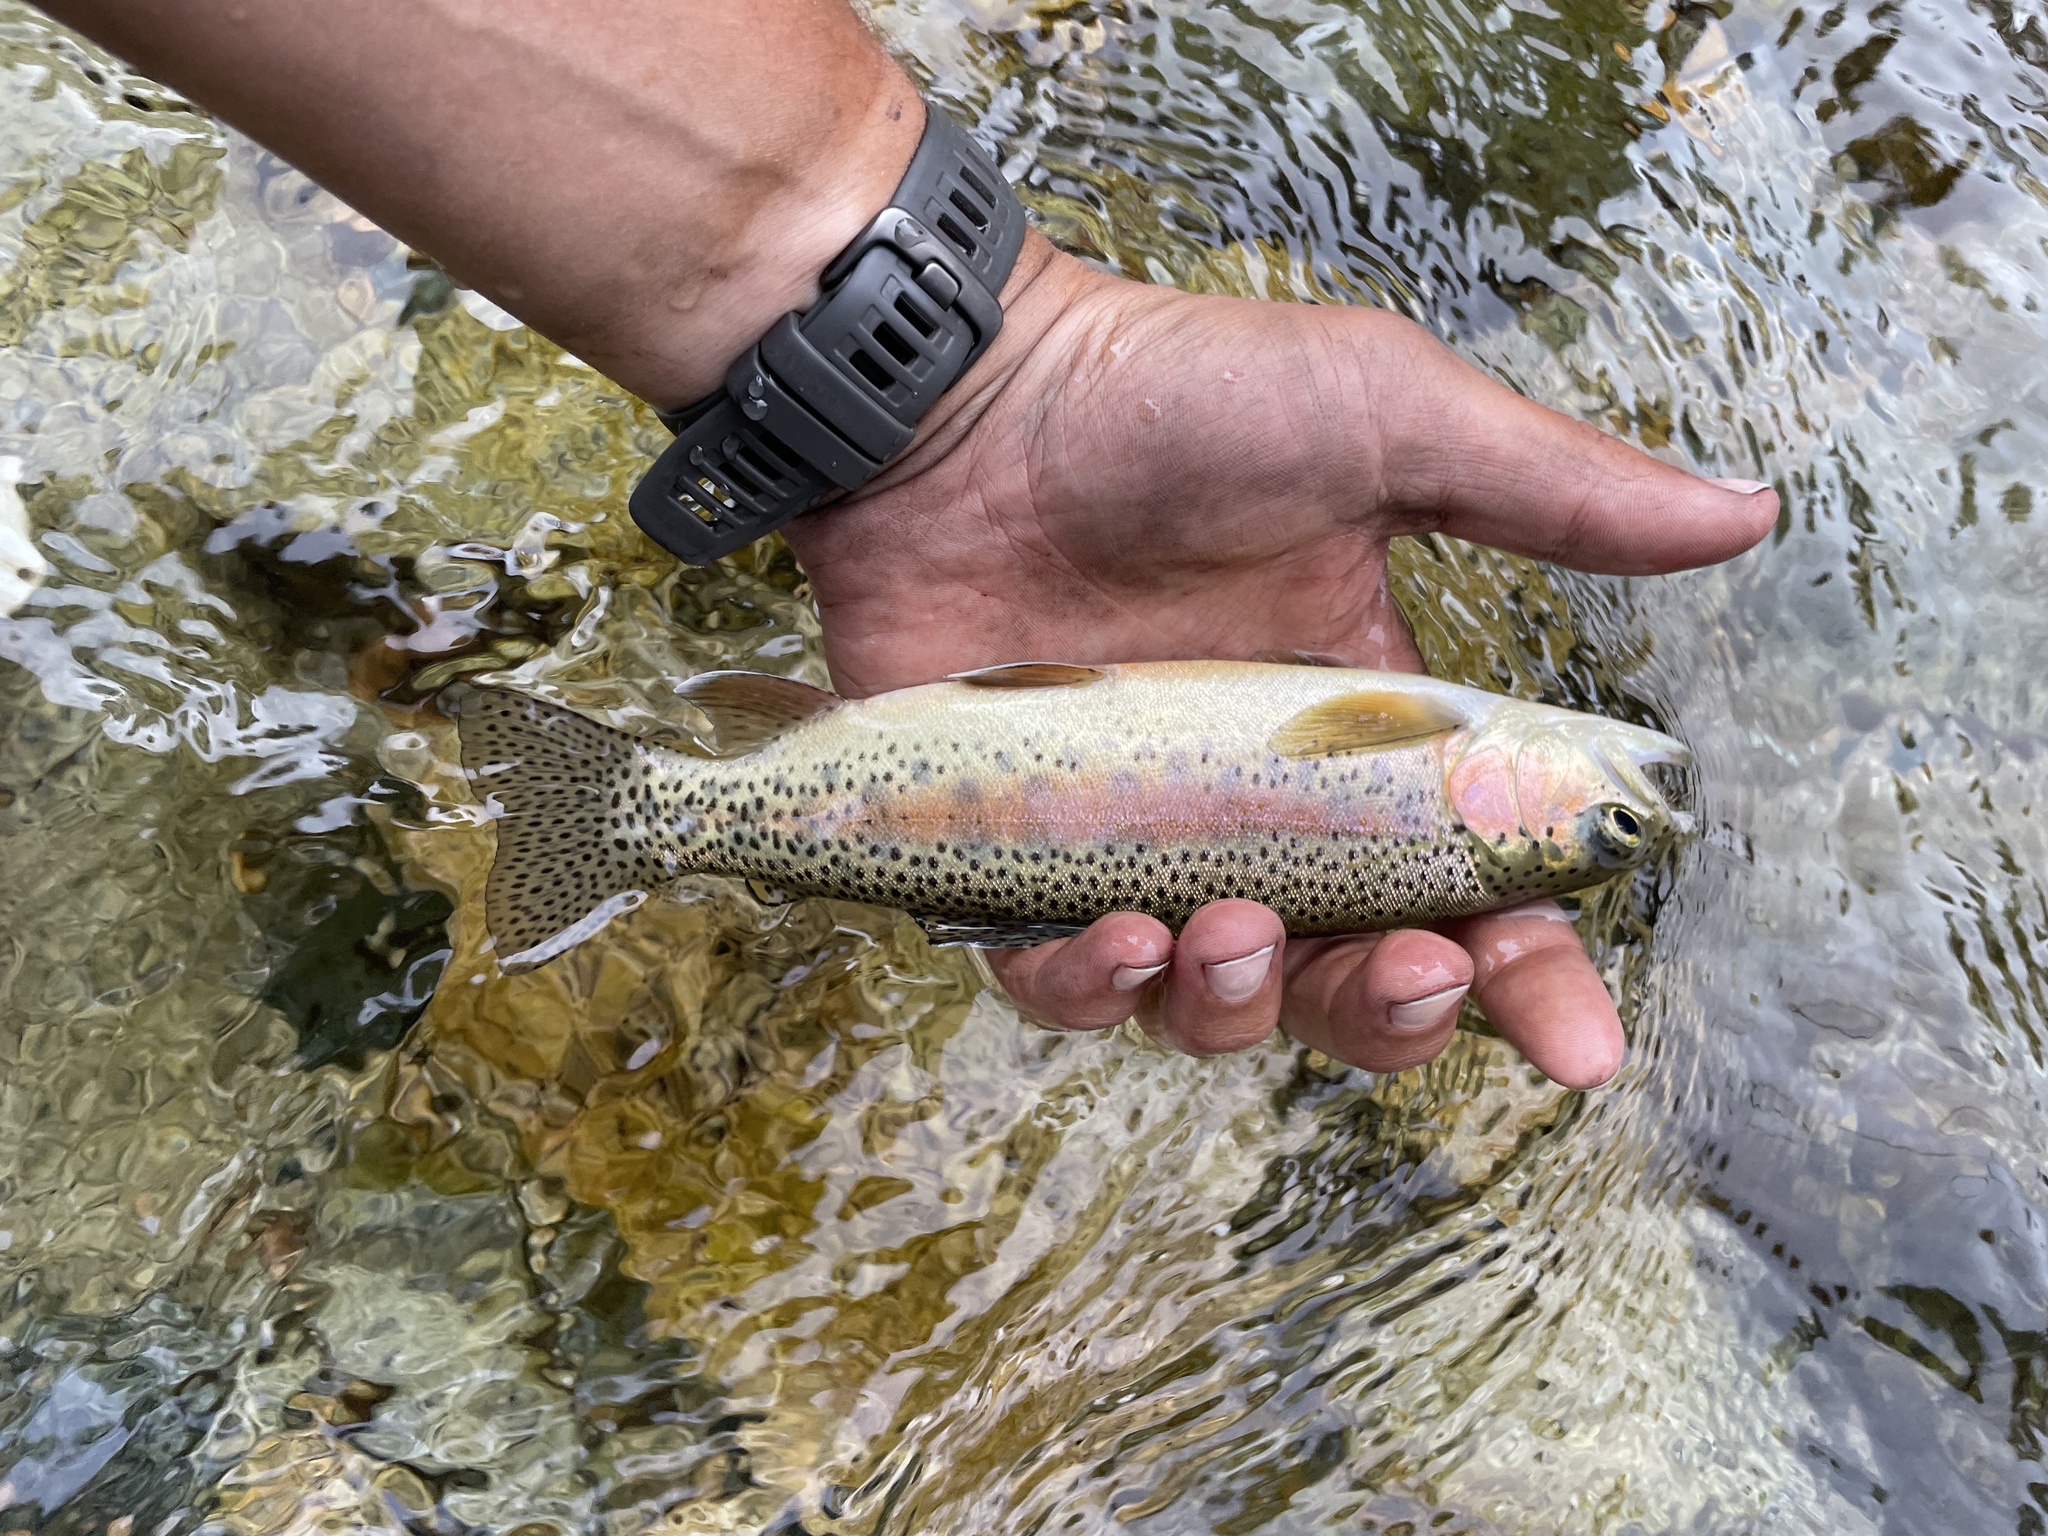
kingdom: Animalia
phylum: Chordata
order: Salmoniformes
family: Salmonidae
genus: Oncorhynchus
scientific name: Oncorhynchus mykiss
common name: Rainbow trout
